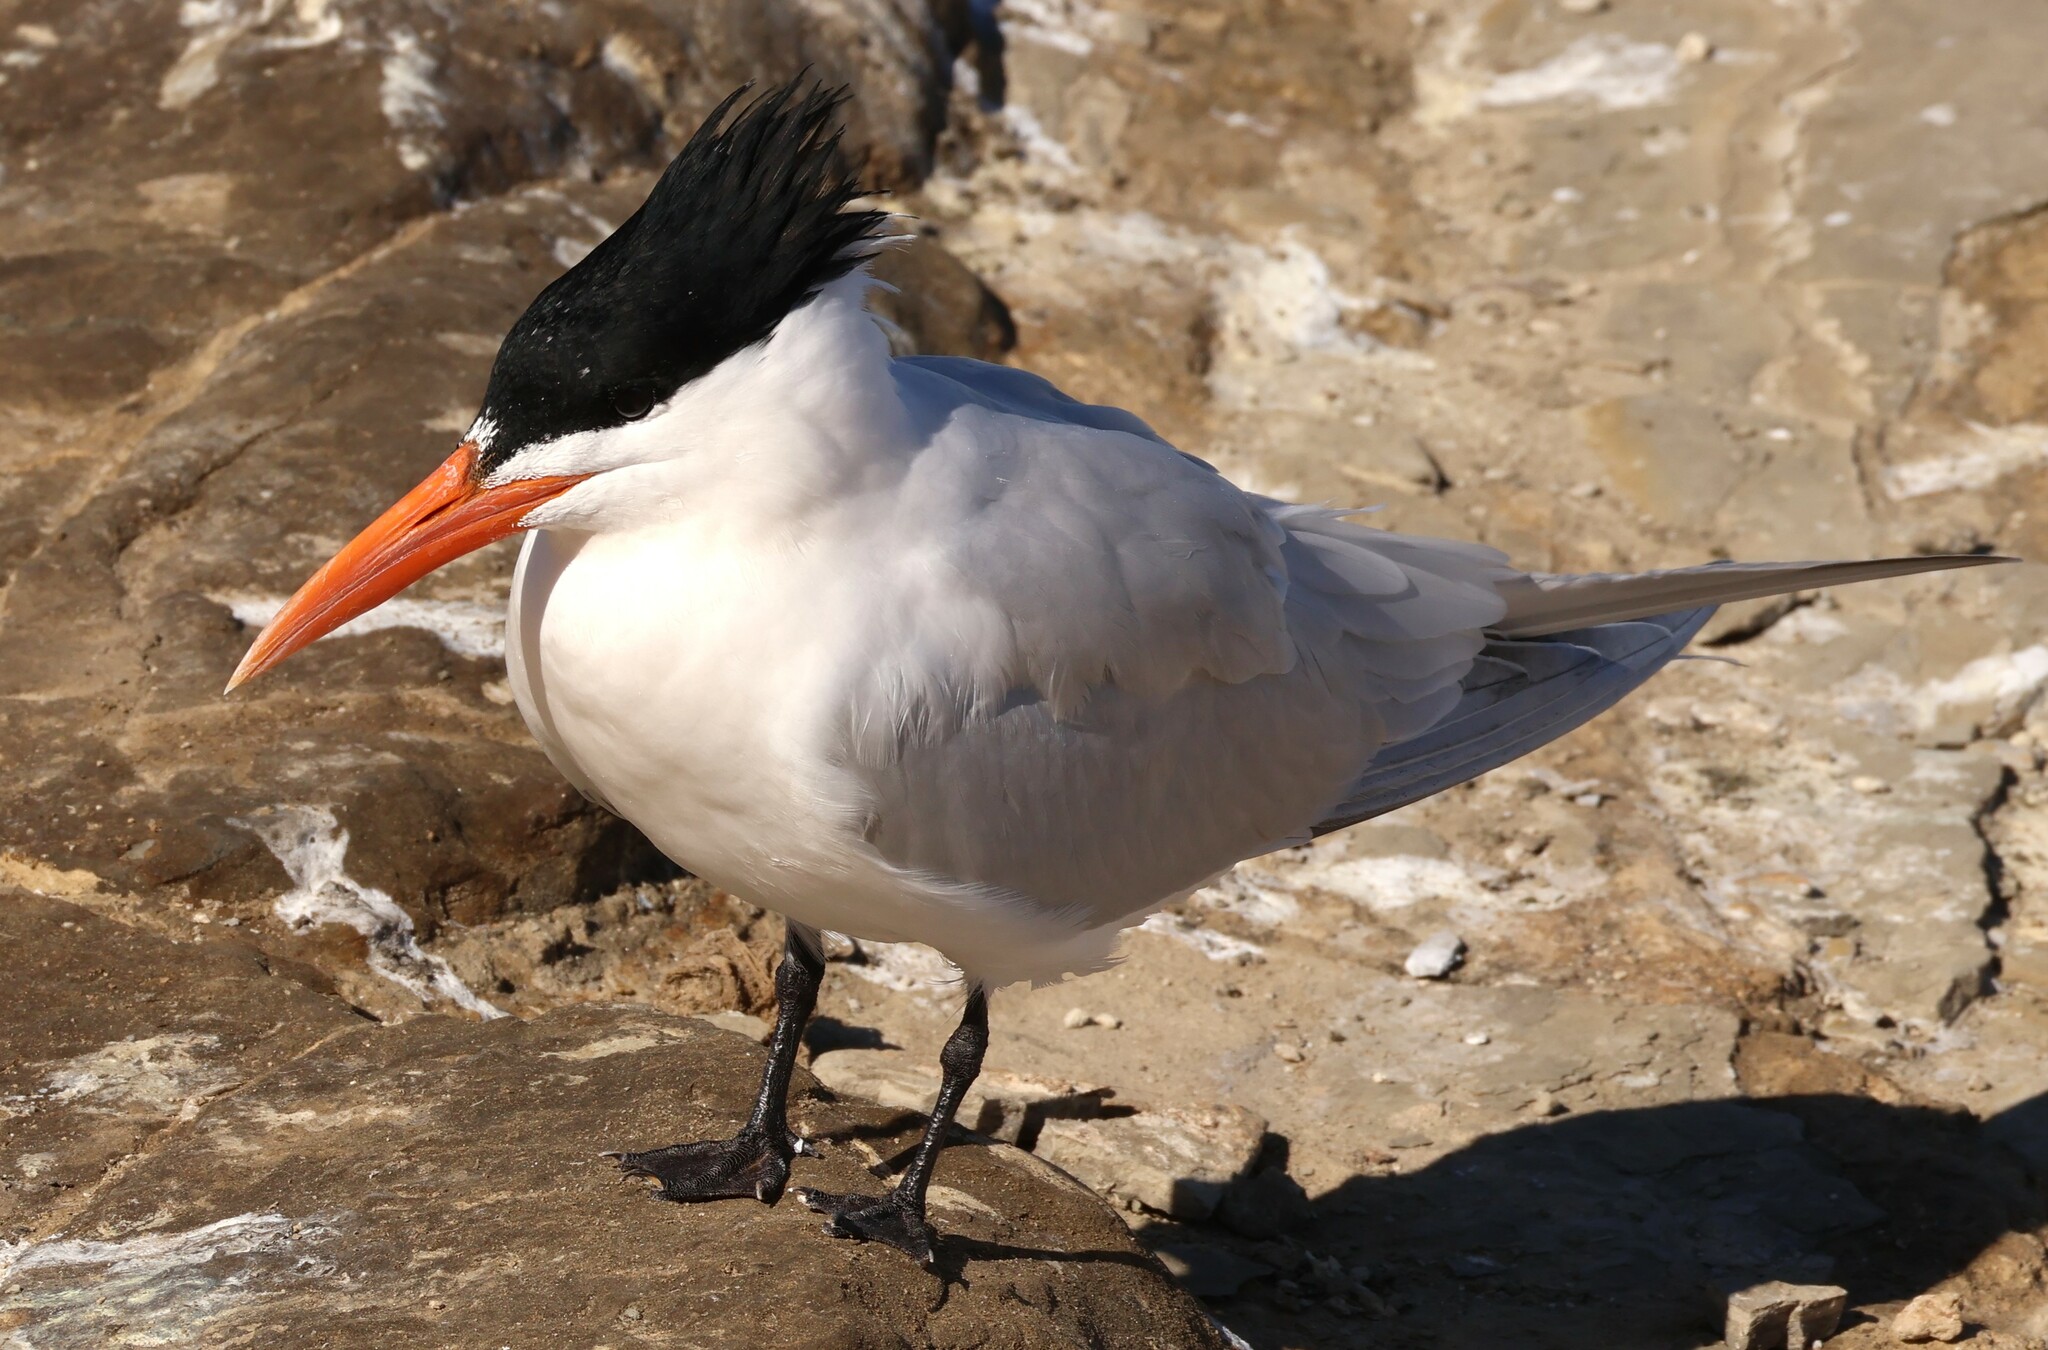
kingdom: Animalia
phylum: Chordata
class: Aves
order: Charadriiformes
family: Laridae
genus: Thalasseus
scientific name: Thalasseus maximus
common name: Royal tern
